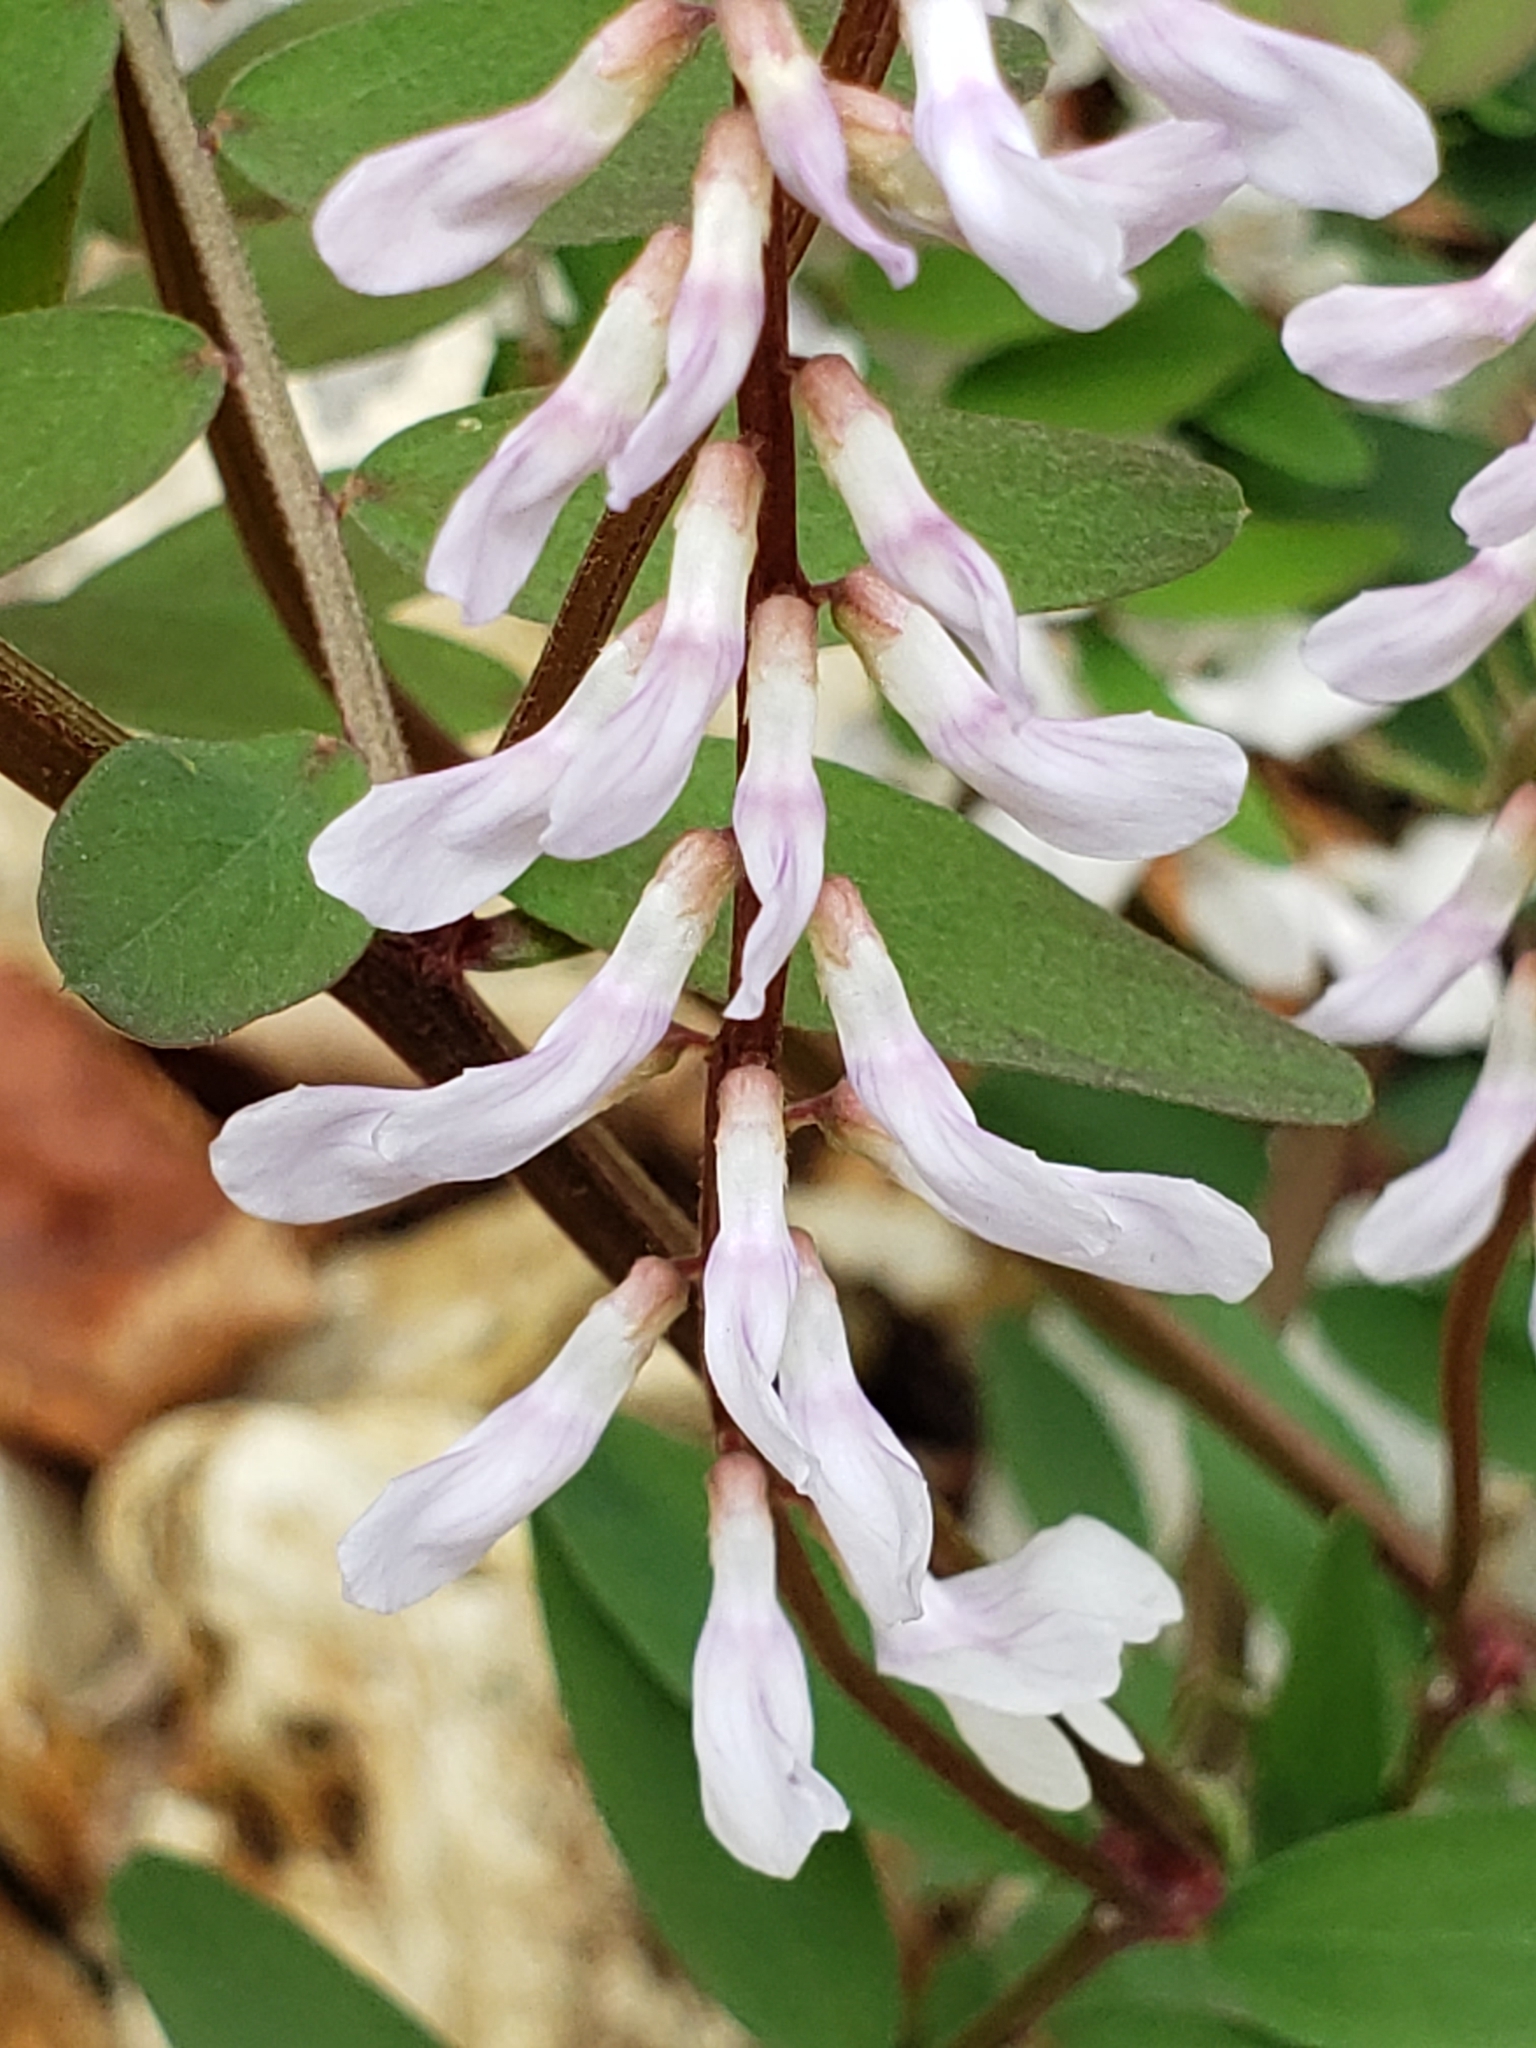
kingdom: Plantae
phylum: Tracheophyta
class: Magnoliopsida
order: Fabales
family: Fabaceae
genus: Vicia
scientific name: Vicia caroliniana
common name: Carolina vetch
